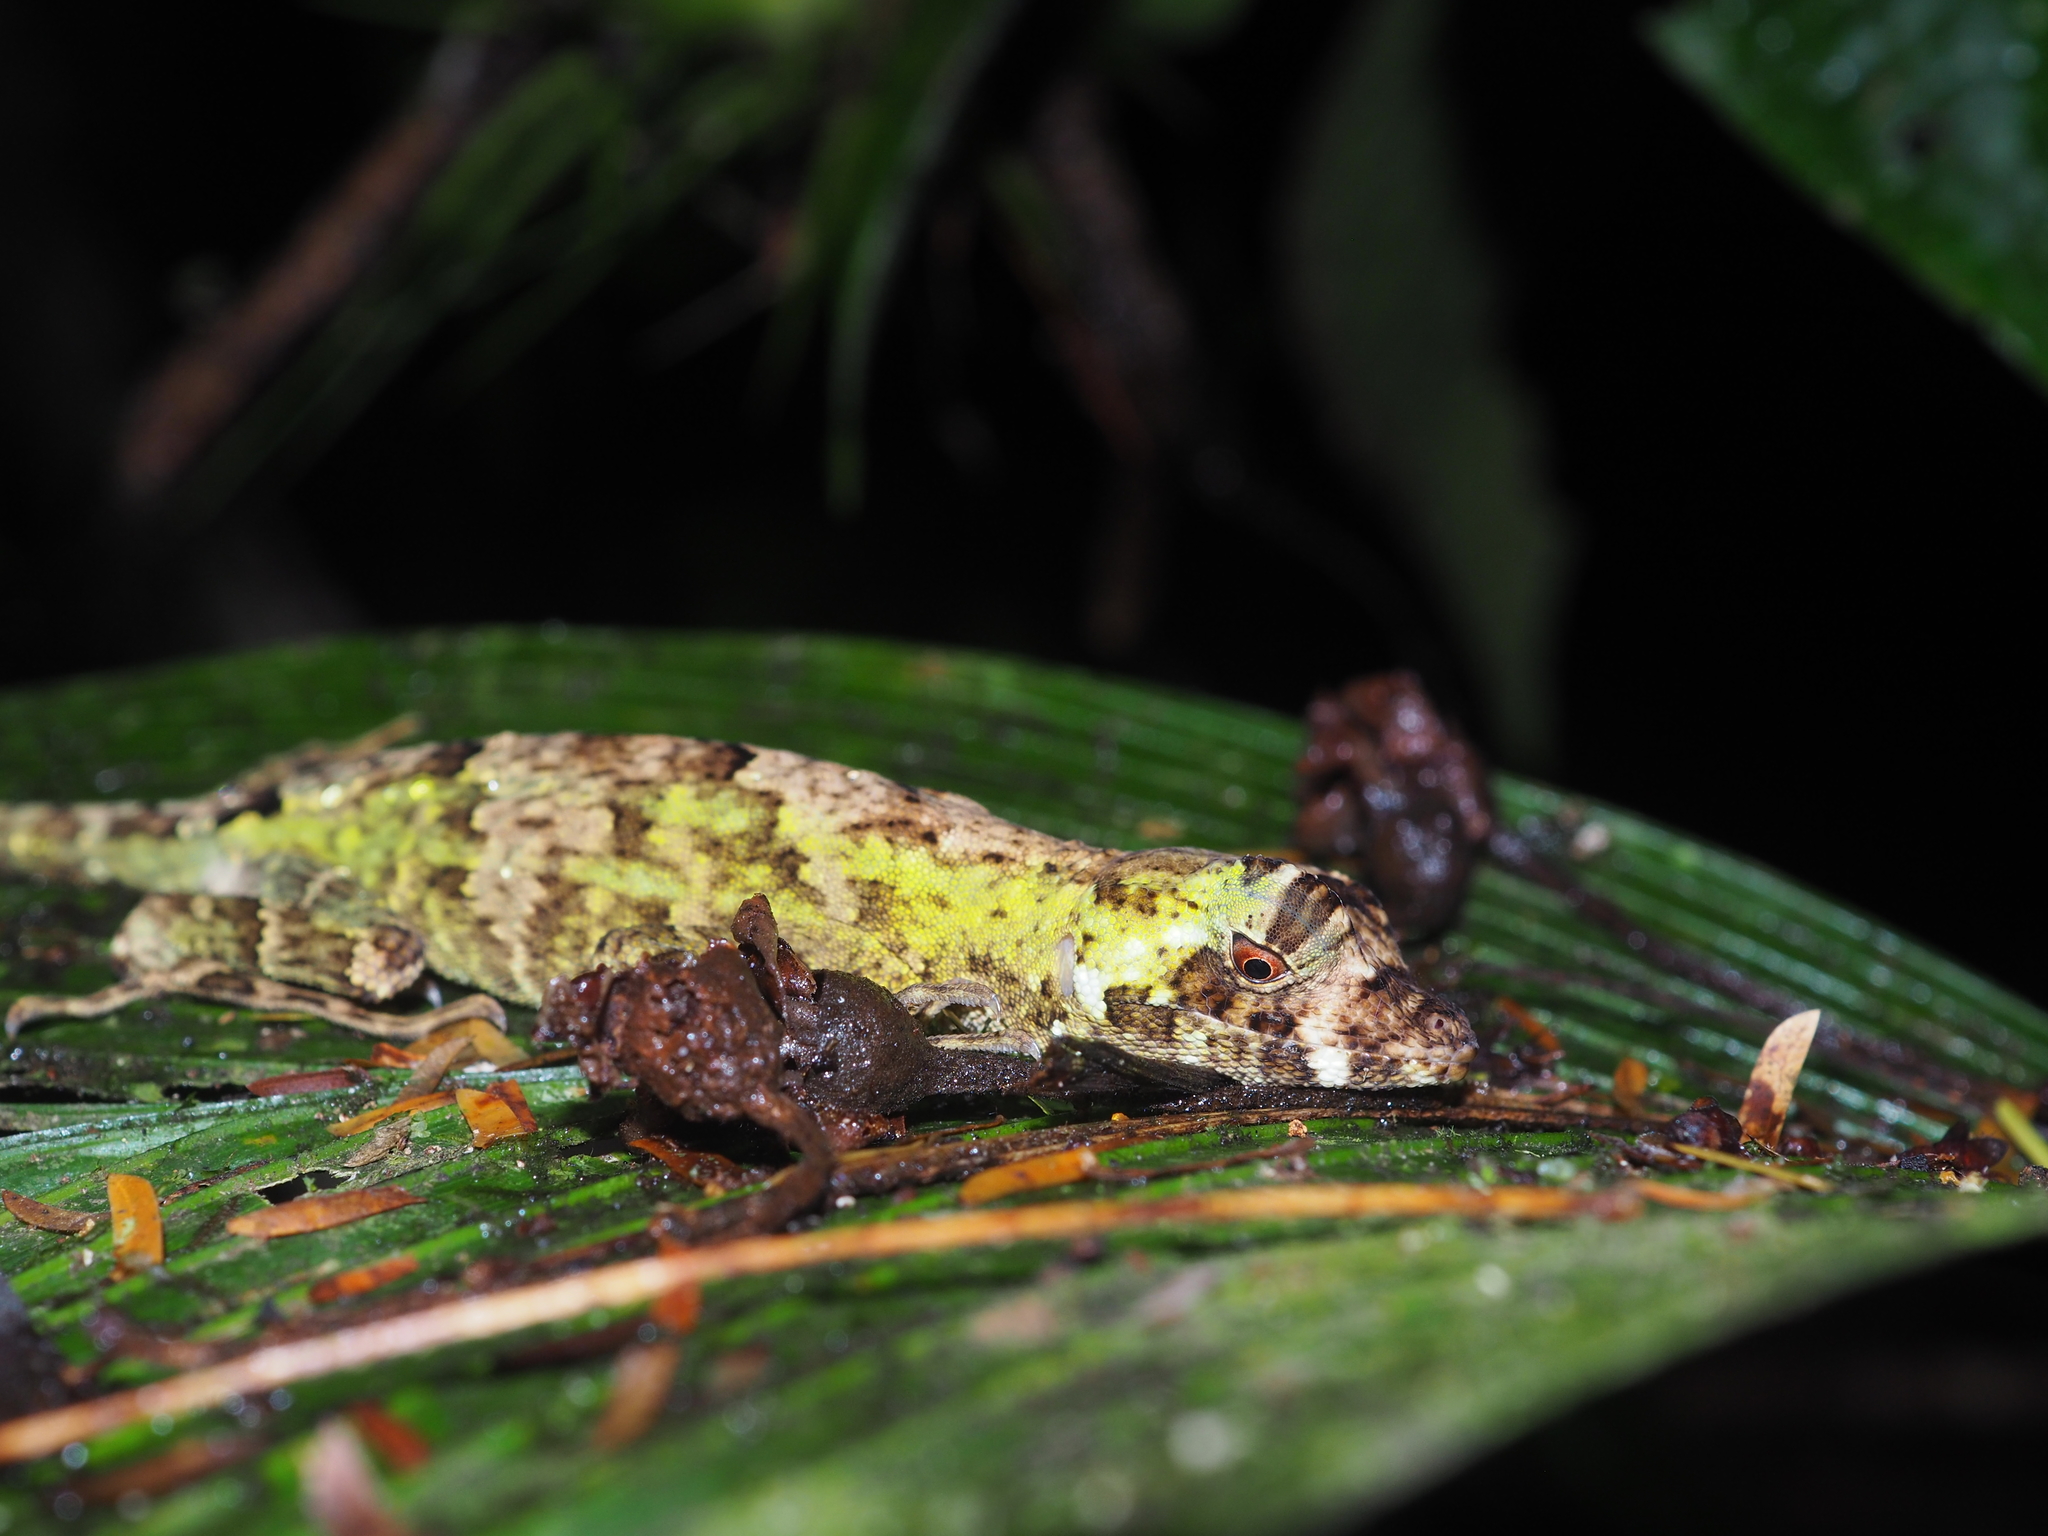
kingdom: Animalia
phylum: Chordata
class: Squamata
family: Dactyloidae
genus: Anolis
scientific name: Anolis capito
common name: Bighead anole
